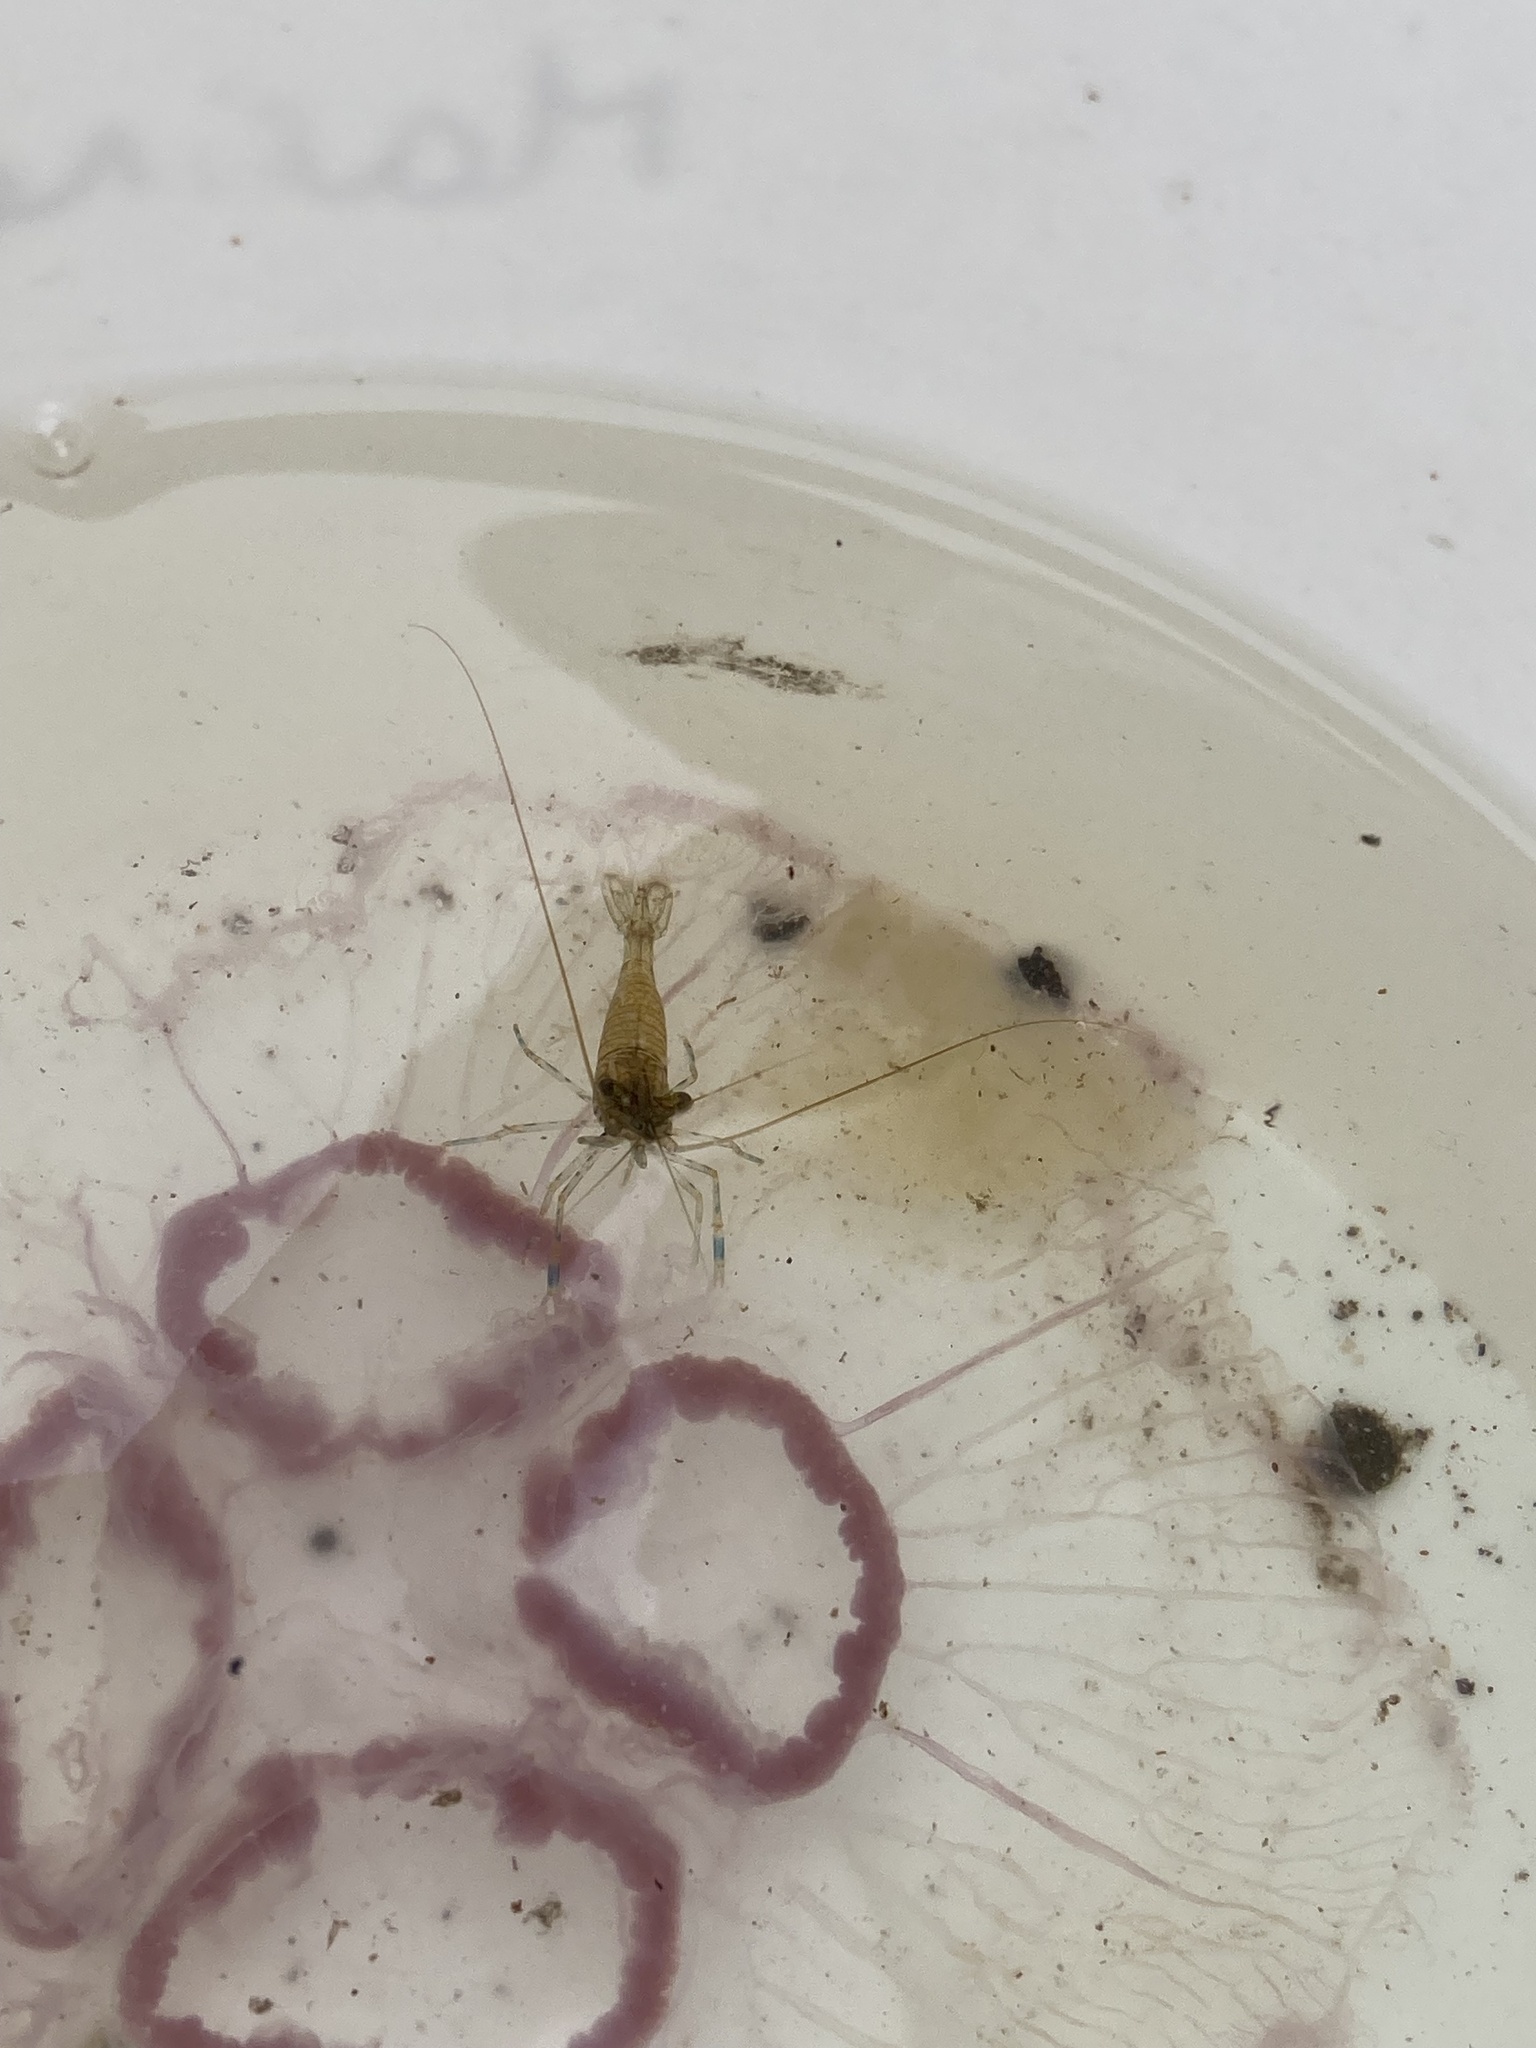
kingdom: Animalia
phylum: Arthropoda
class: Malacostraca
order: Decapoda
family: Palaemonidae
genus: Palaemon
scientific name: Palaemon elegans
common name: Grass prawm
